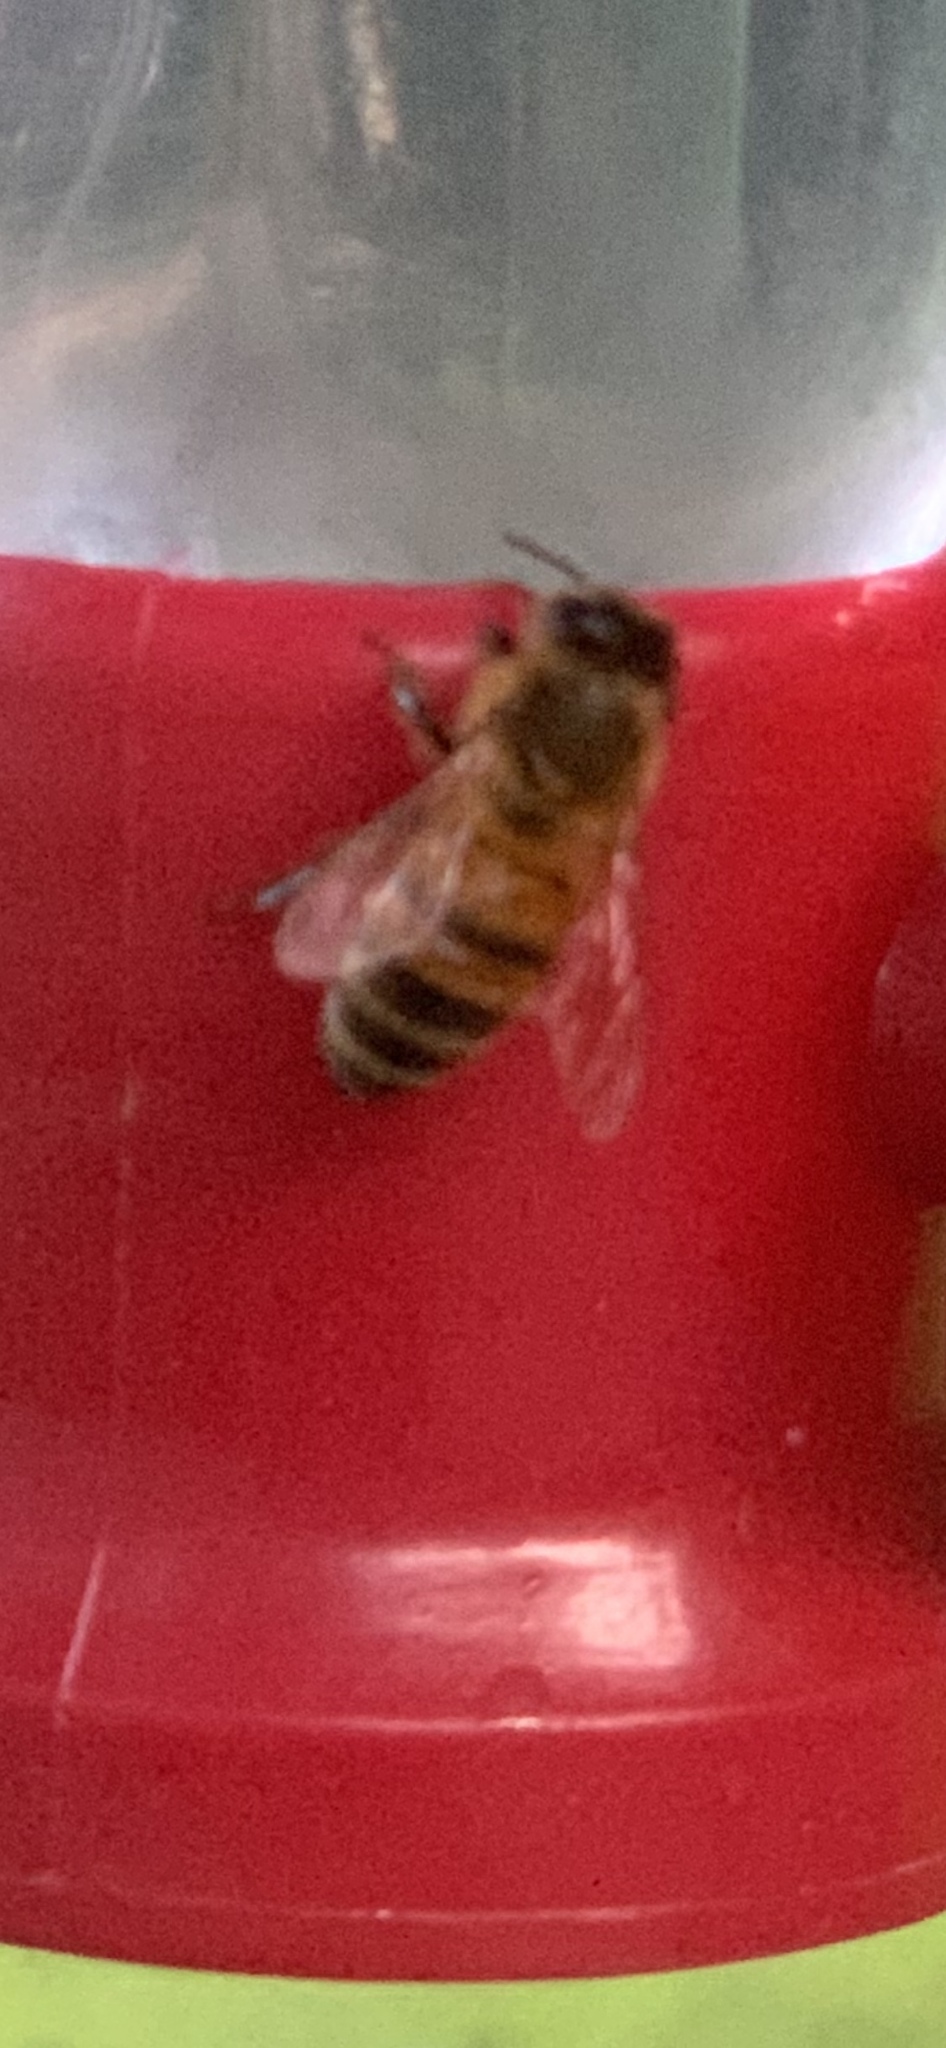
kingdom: Animalia
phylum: Arthropoda
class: Insecta
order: Hymenoptera
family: Apidae
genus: Apis
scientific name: Apis mellifera
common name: Honey bee
